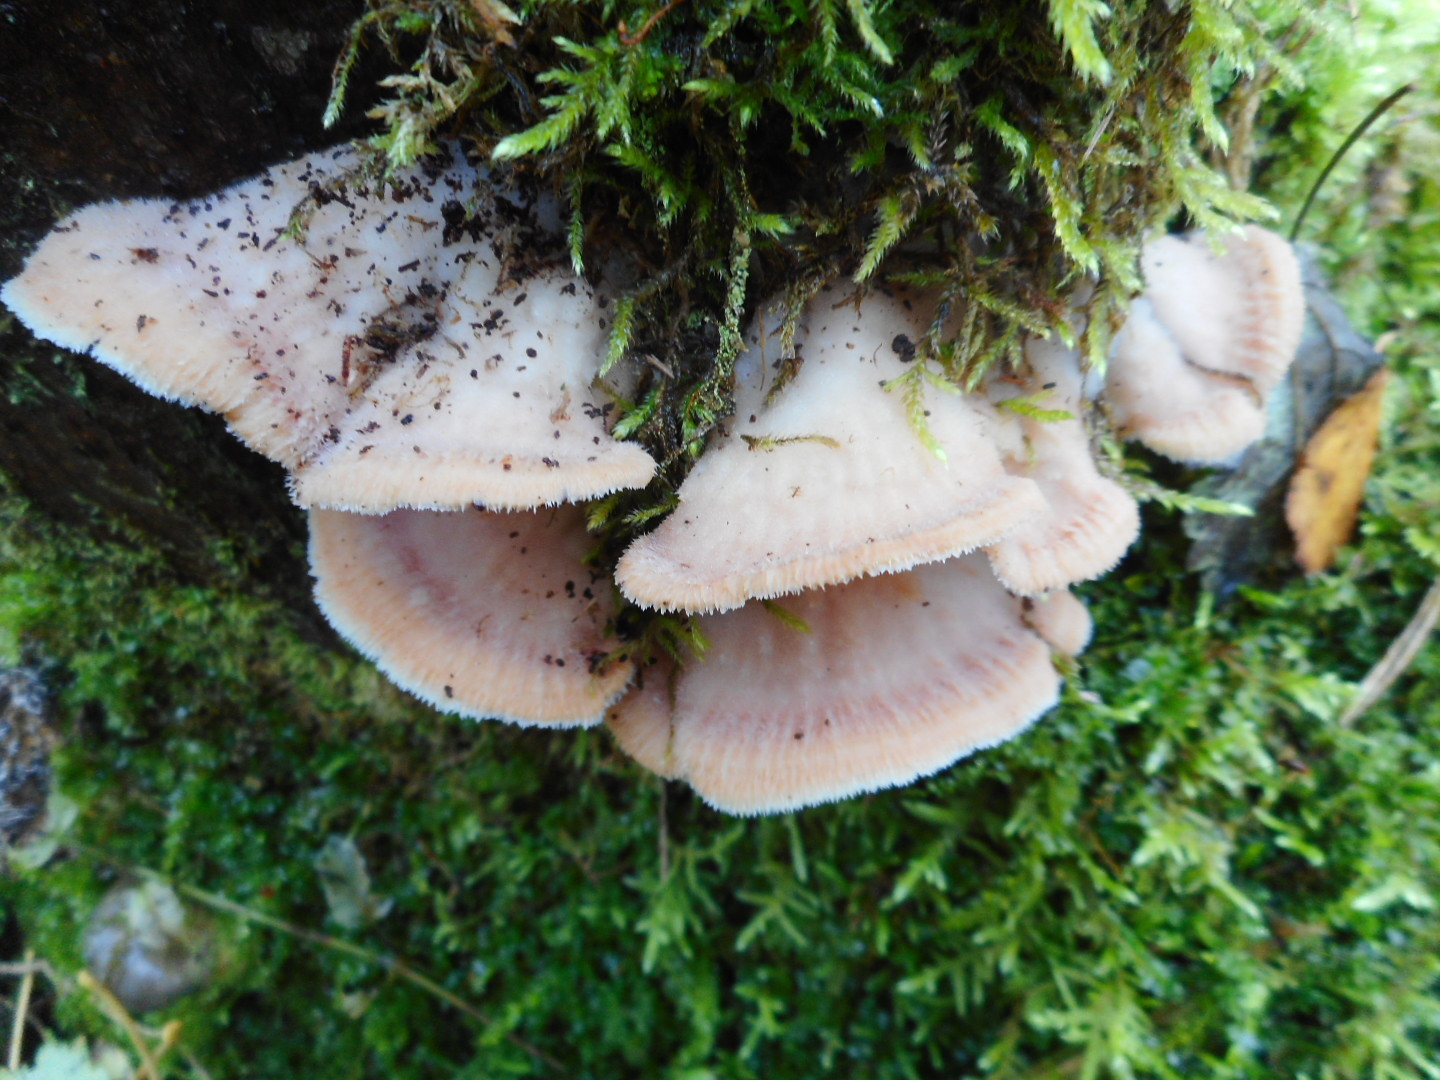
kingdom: Fungi
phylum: Basidiomycota
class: Agaricomycetes
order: Polyporales
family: Meruliaceae
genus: Phlebia
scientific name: Phlebia tremellosa
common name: Jelly rot
